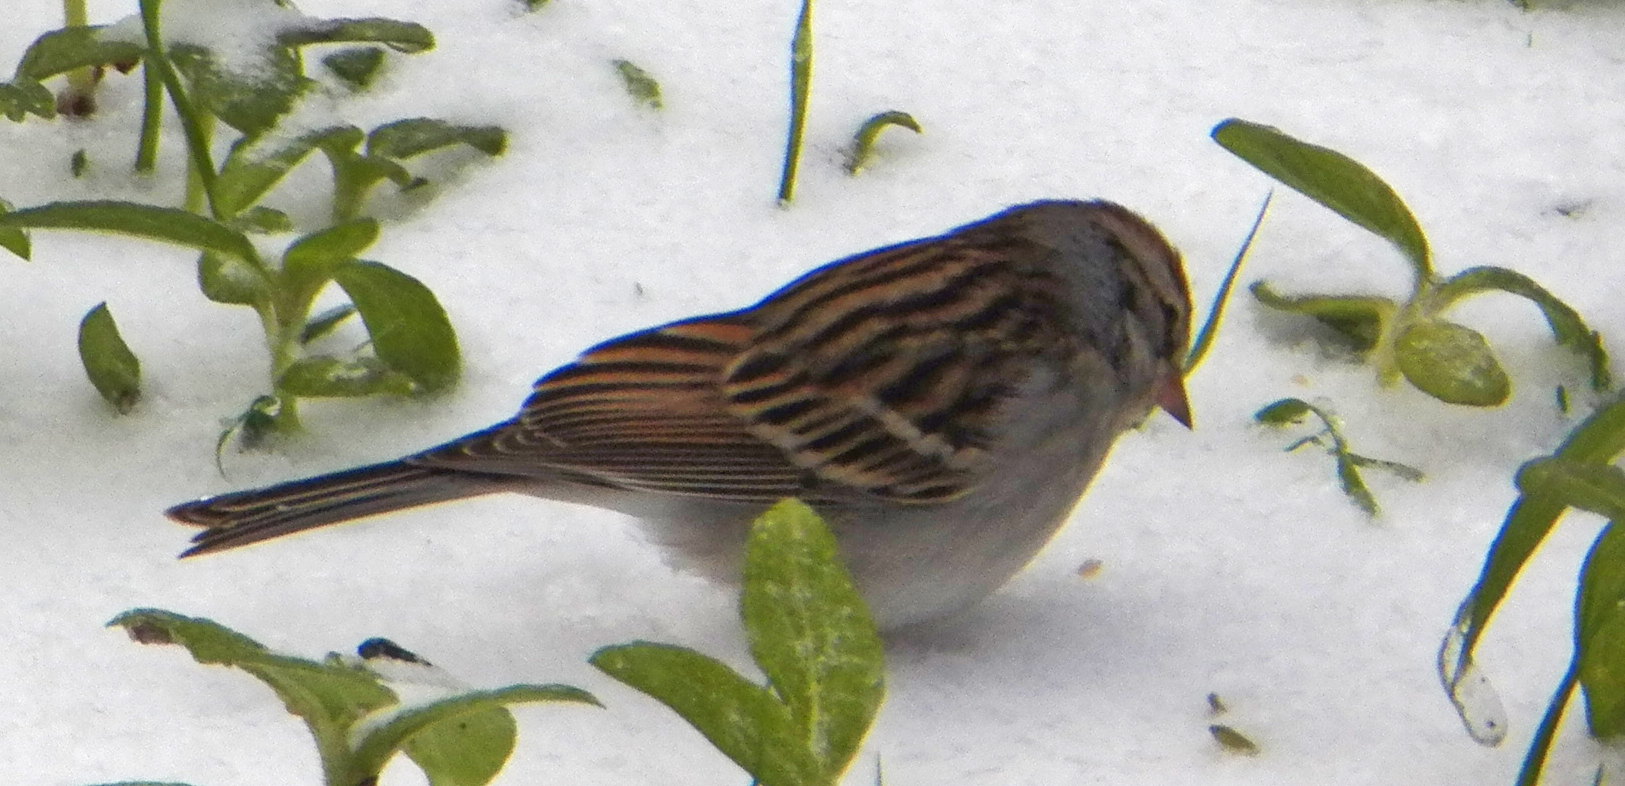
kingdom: Animalia
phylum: Chordata
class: Aves
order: Passeriformes
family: Passerellidae
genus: Spizella
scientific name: Spizella passerina
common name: Chipping sparrow
